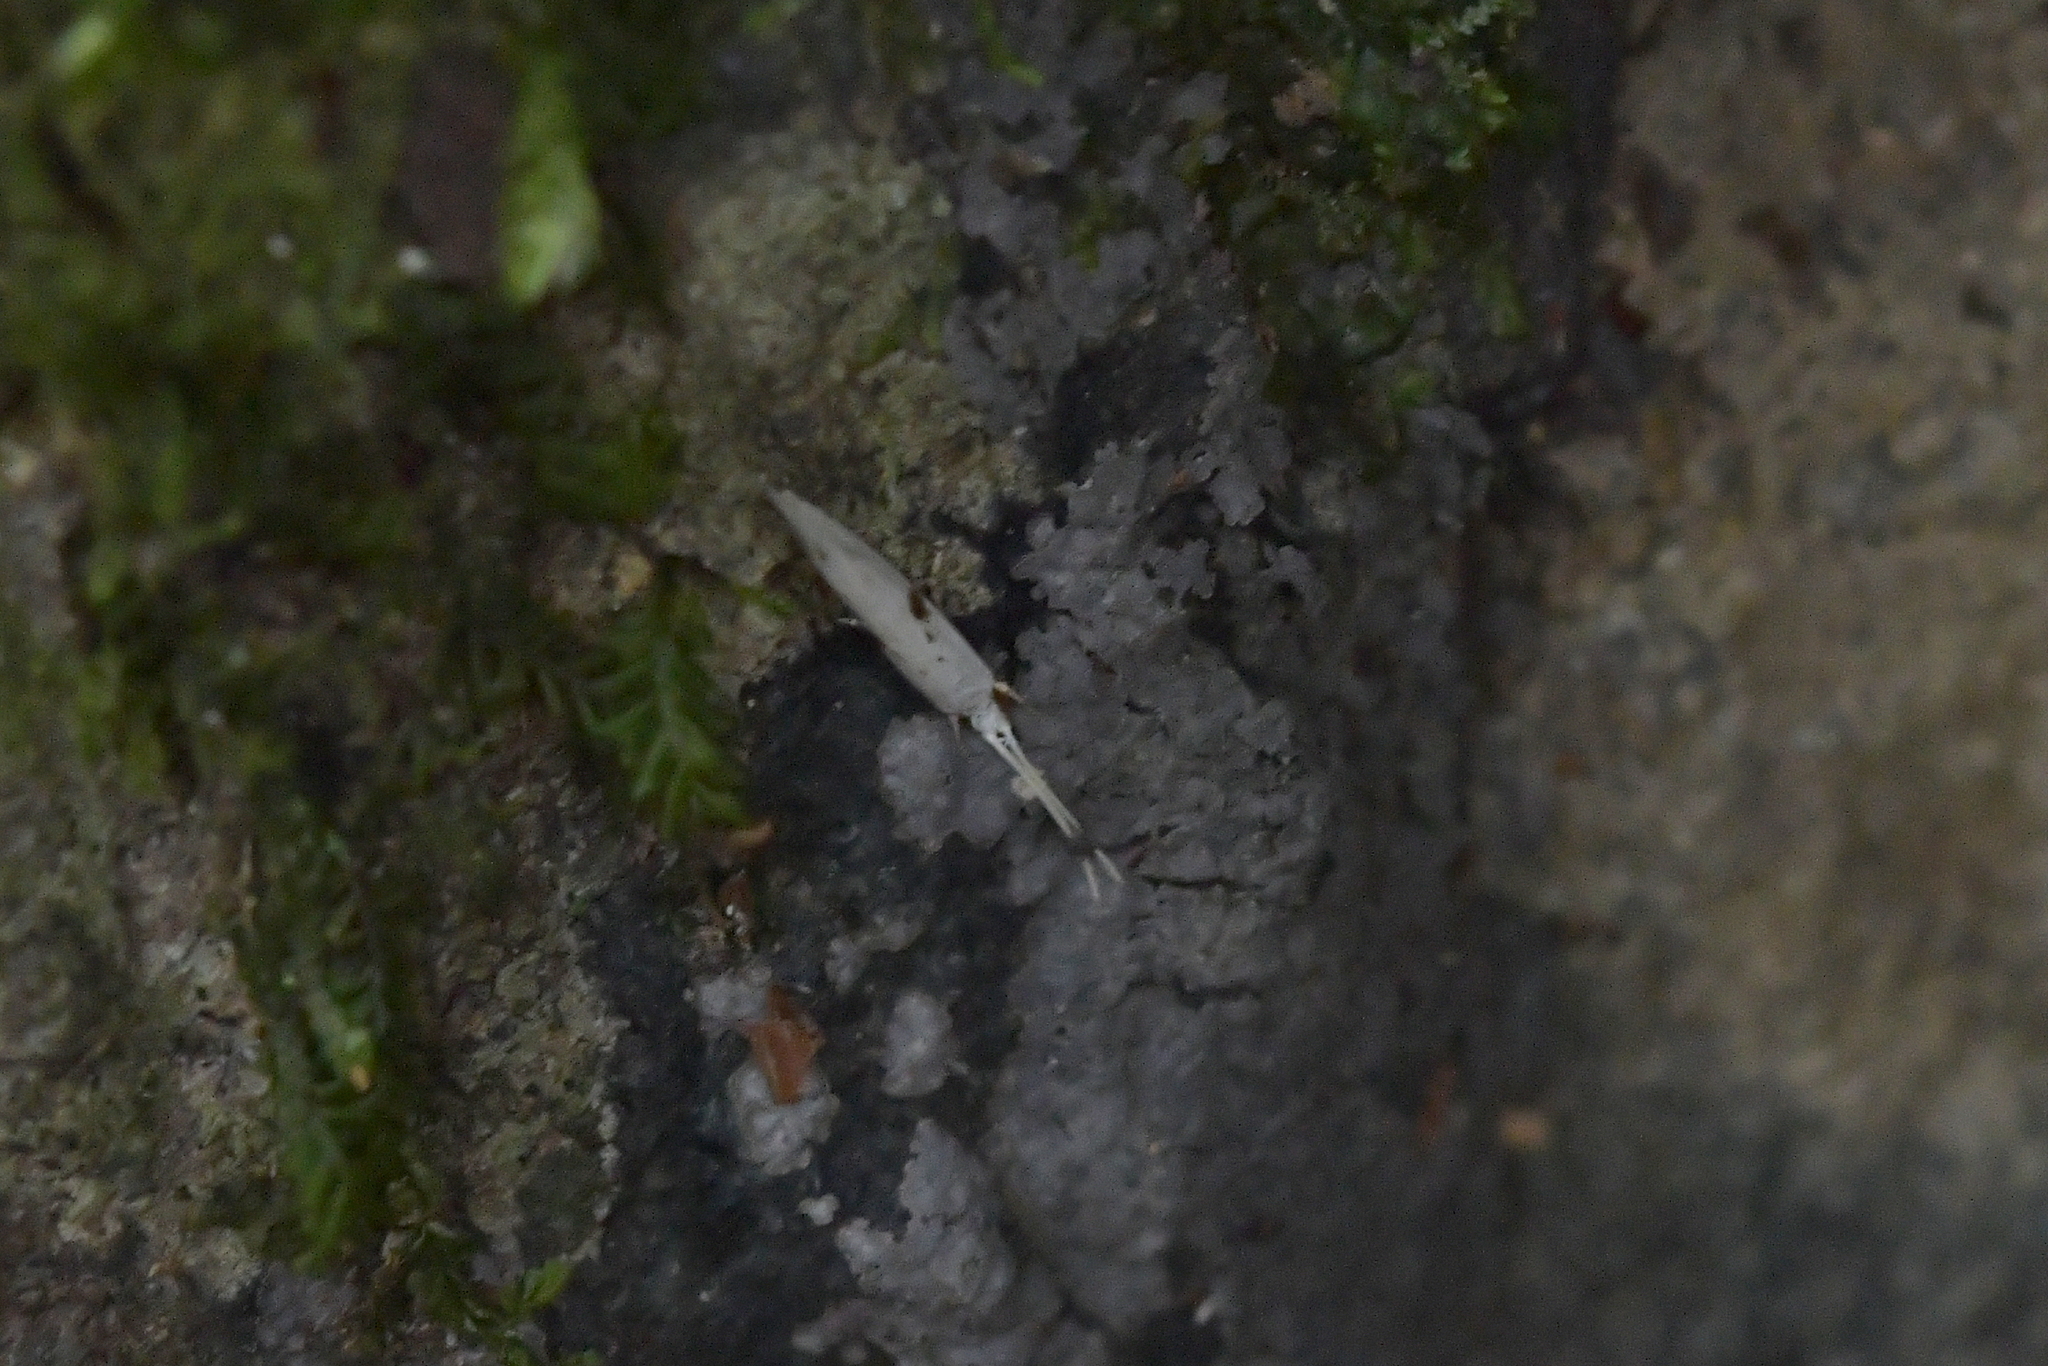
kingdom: Animalia
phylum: Arthropoda
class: Insecta
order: Lepidoptera
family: Tineidae
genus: Sagephora
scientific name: Sagephora felix
